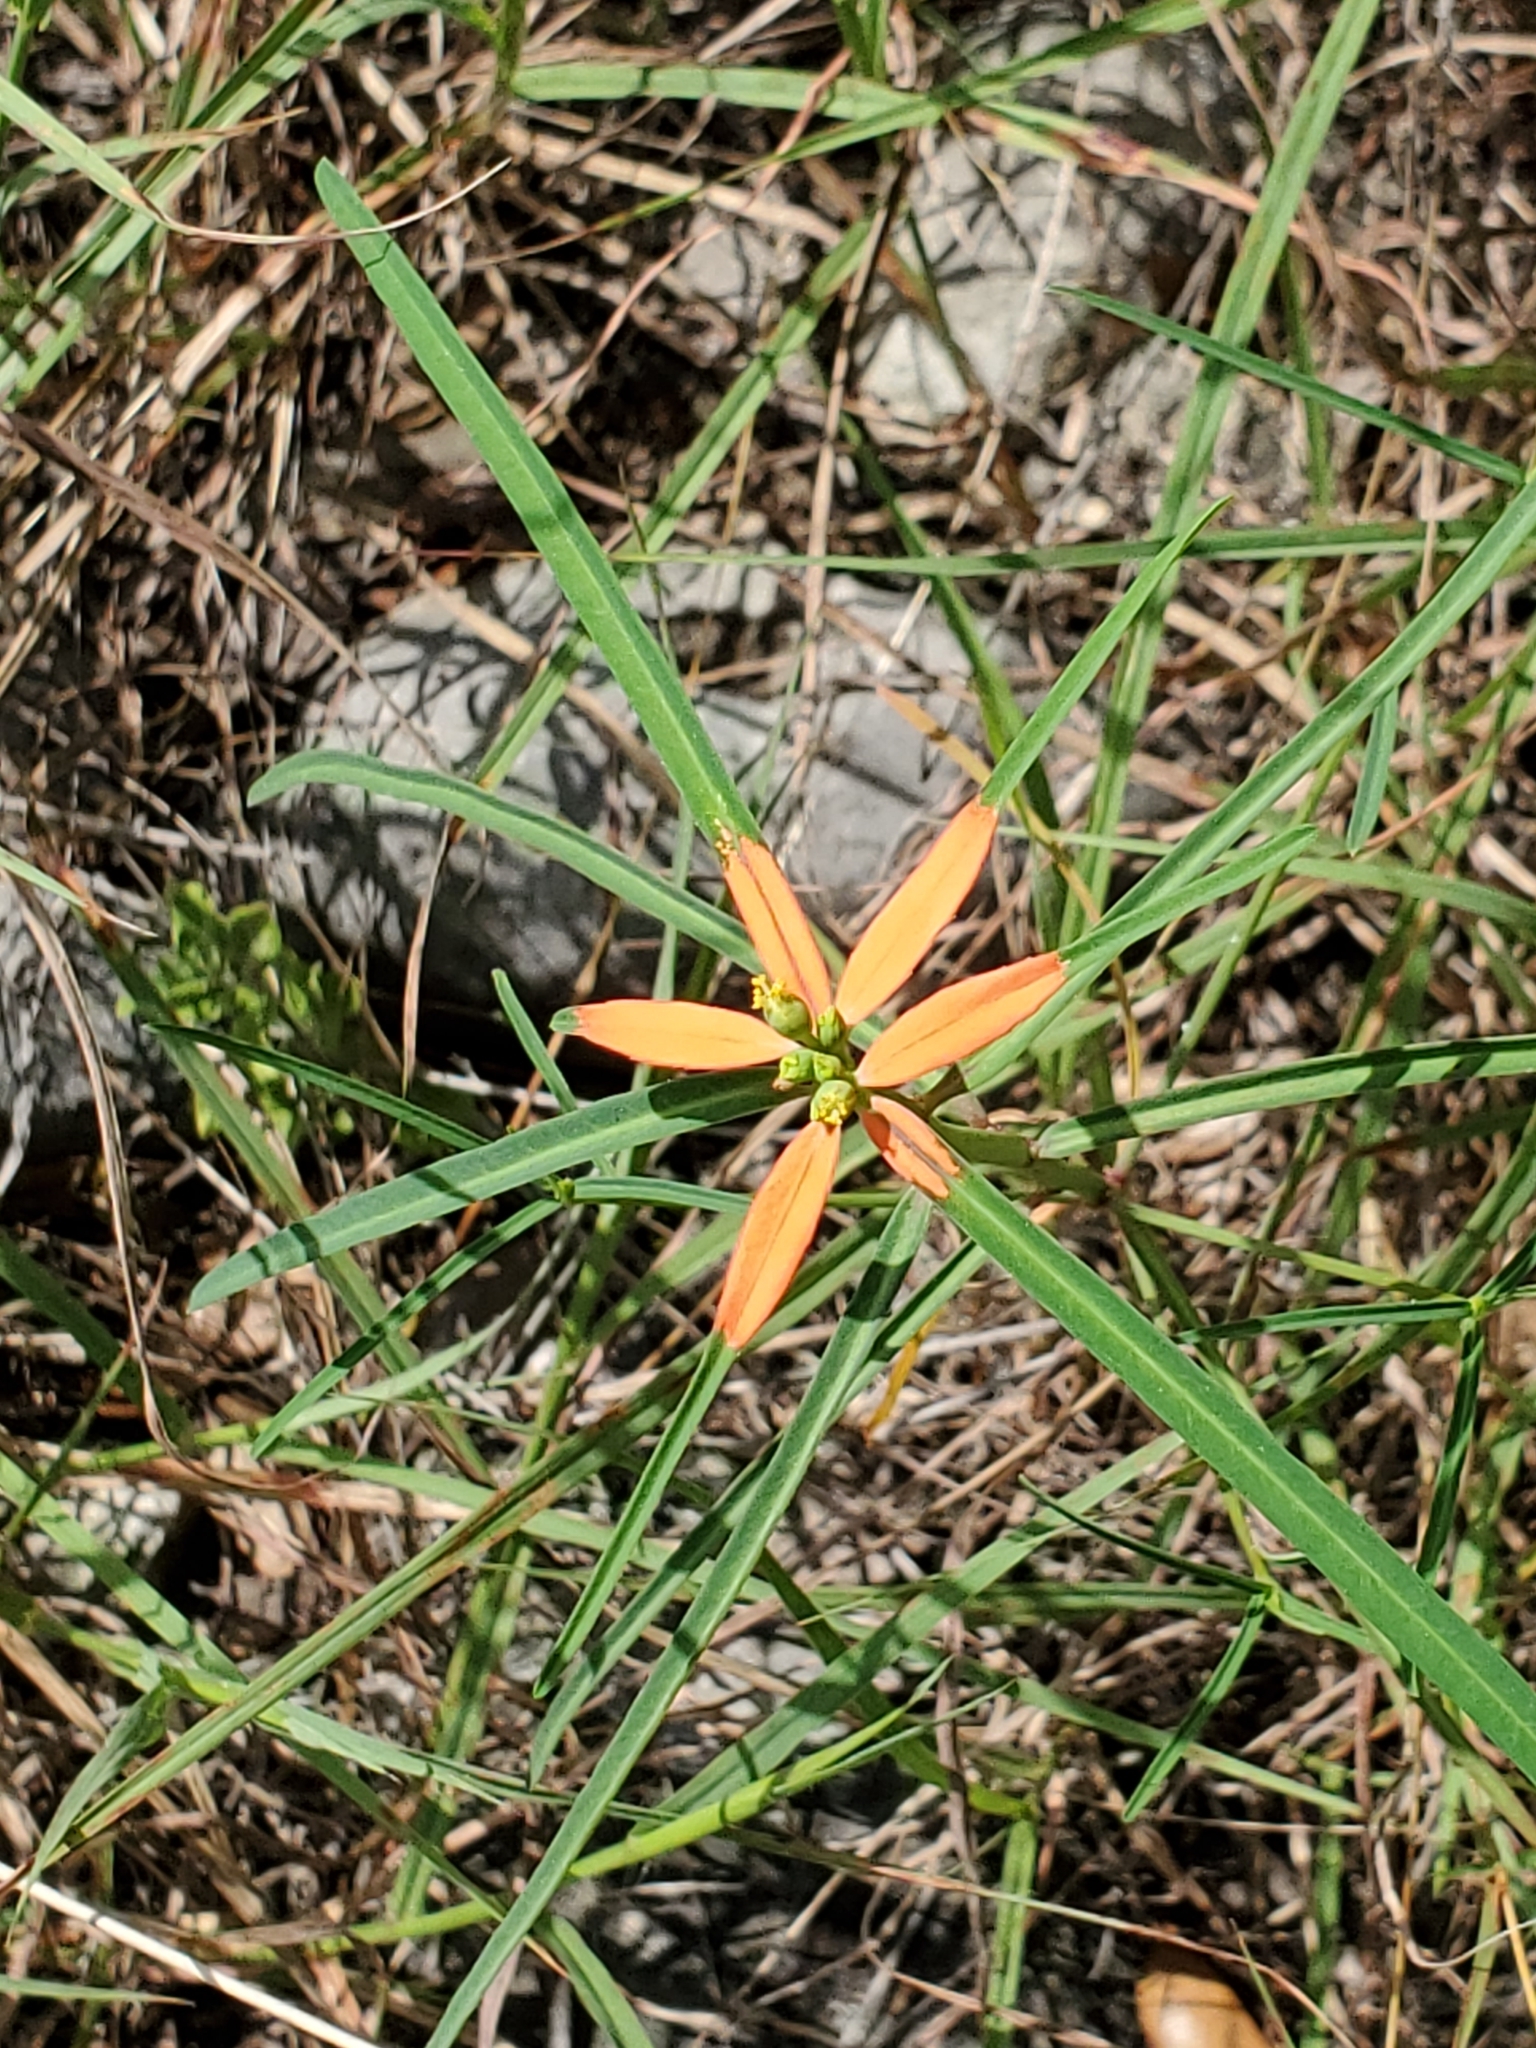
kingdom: Plantae
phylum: Tracheophyta
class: Magnoliopsida
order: Malpighiales
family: Euphorbiaceae
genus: Euphorbia
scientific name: Euphorbia heterophylla
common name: Mexican fireplant
